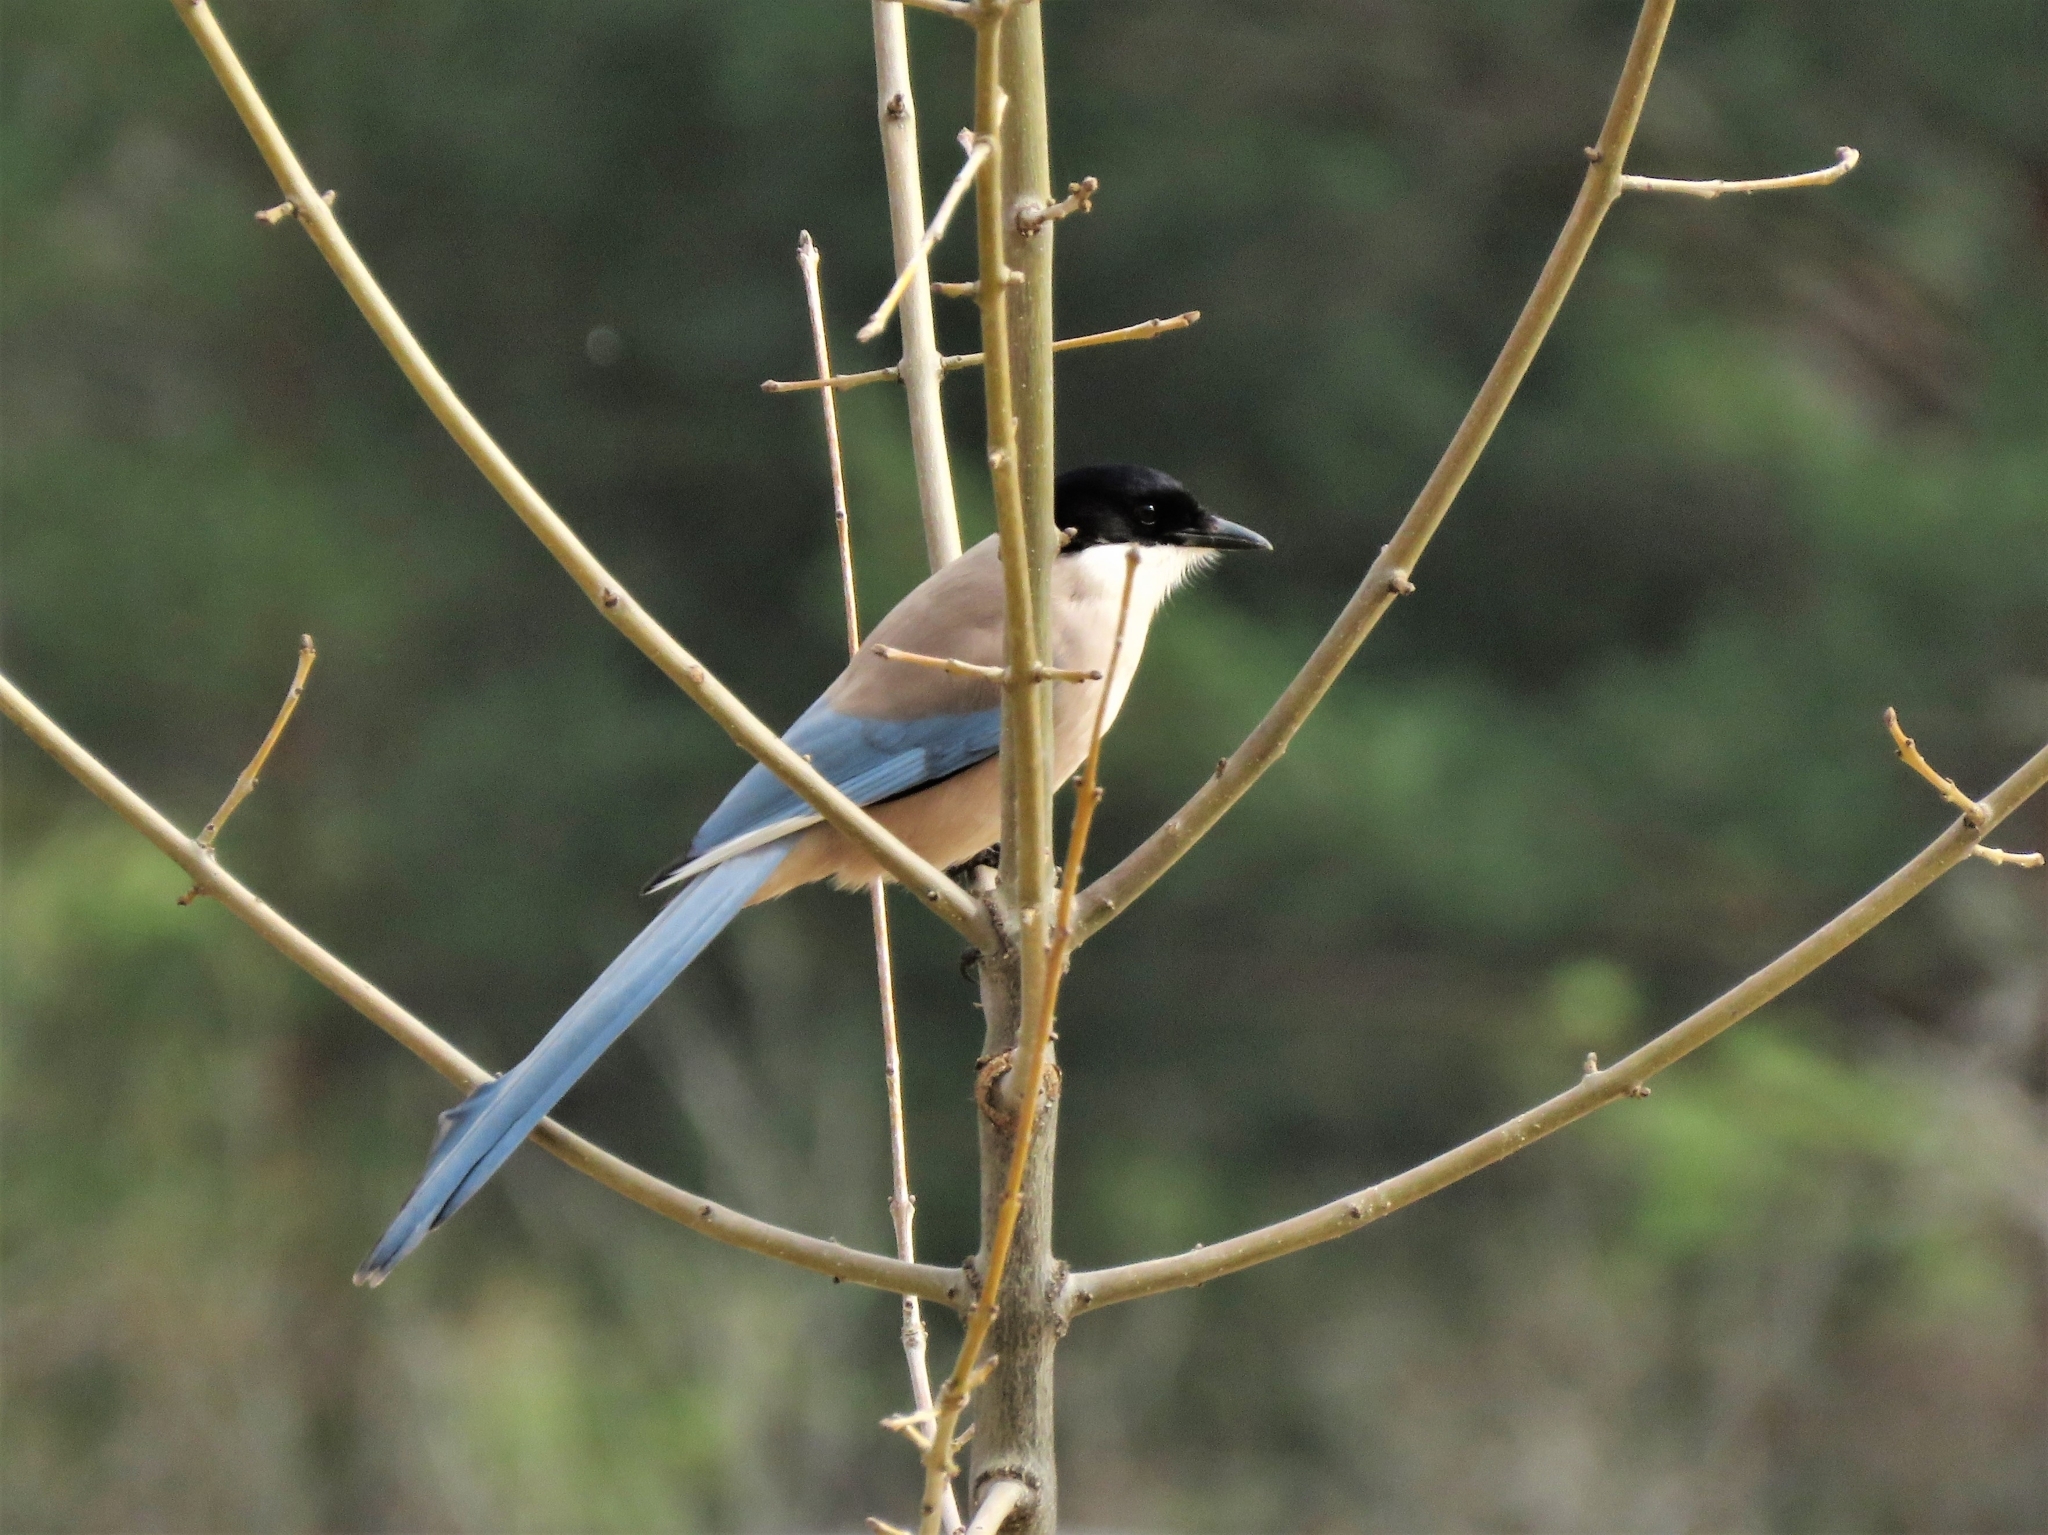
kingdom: Animalia
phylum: Chordata
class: Aves
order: Passeriformes
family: Corvidae
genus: Cyanopica
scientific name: Cyanopica cooki
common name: Iberian magpie
